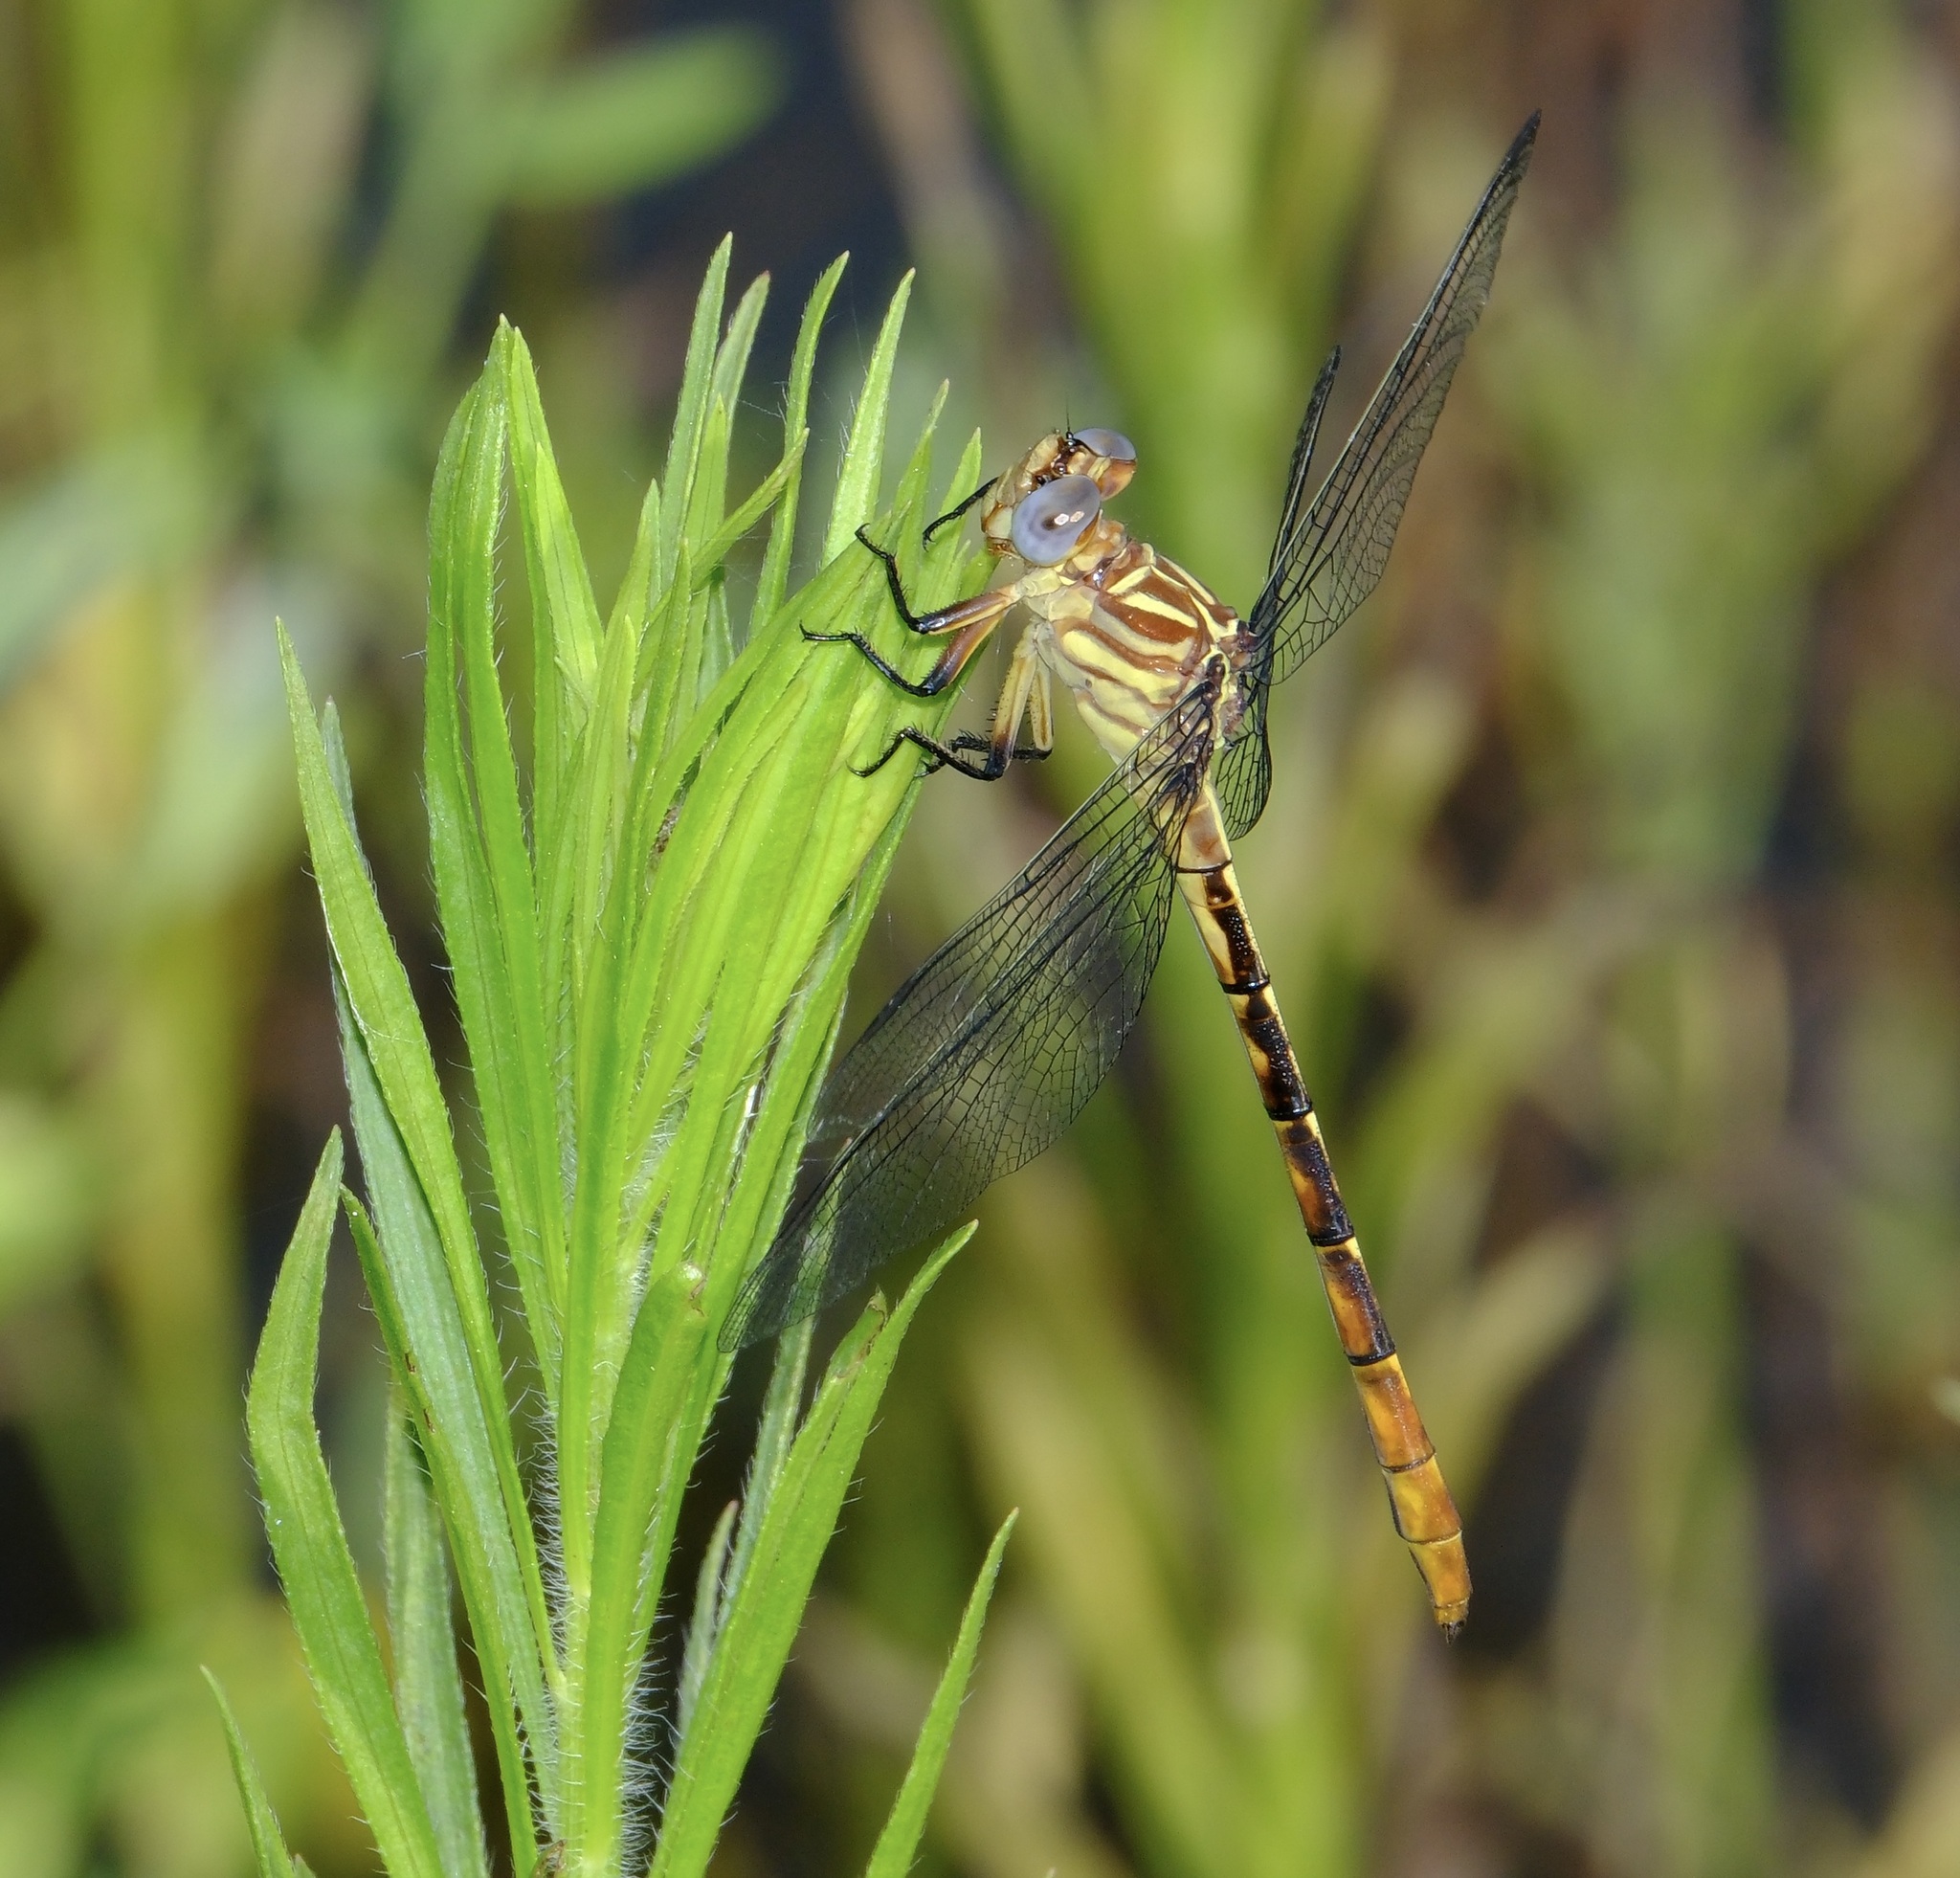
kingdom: Animalia
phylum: Arthropoda
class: Insecta
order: Odonata
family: Gomphidae
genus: Stylurus
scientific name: Stylurus plagiatus
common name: Russet-tipped clubtail
